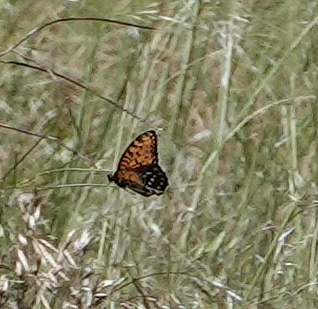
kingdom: Animalia
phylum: Arthropoda
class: Insecta
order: Lepidoptera
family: Nymphalidae
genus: Speyeria
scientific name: Speyeria idalia
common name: Regal fritillary
